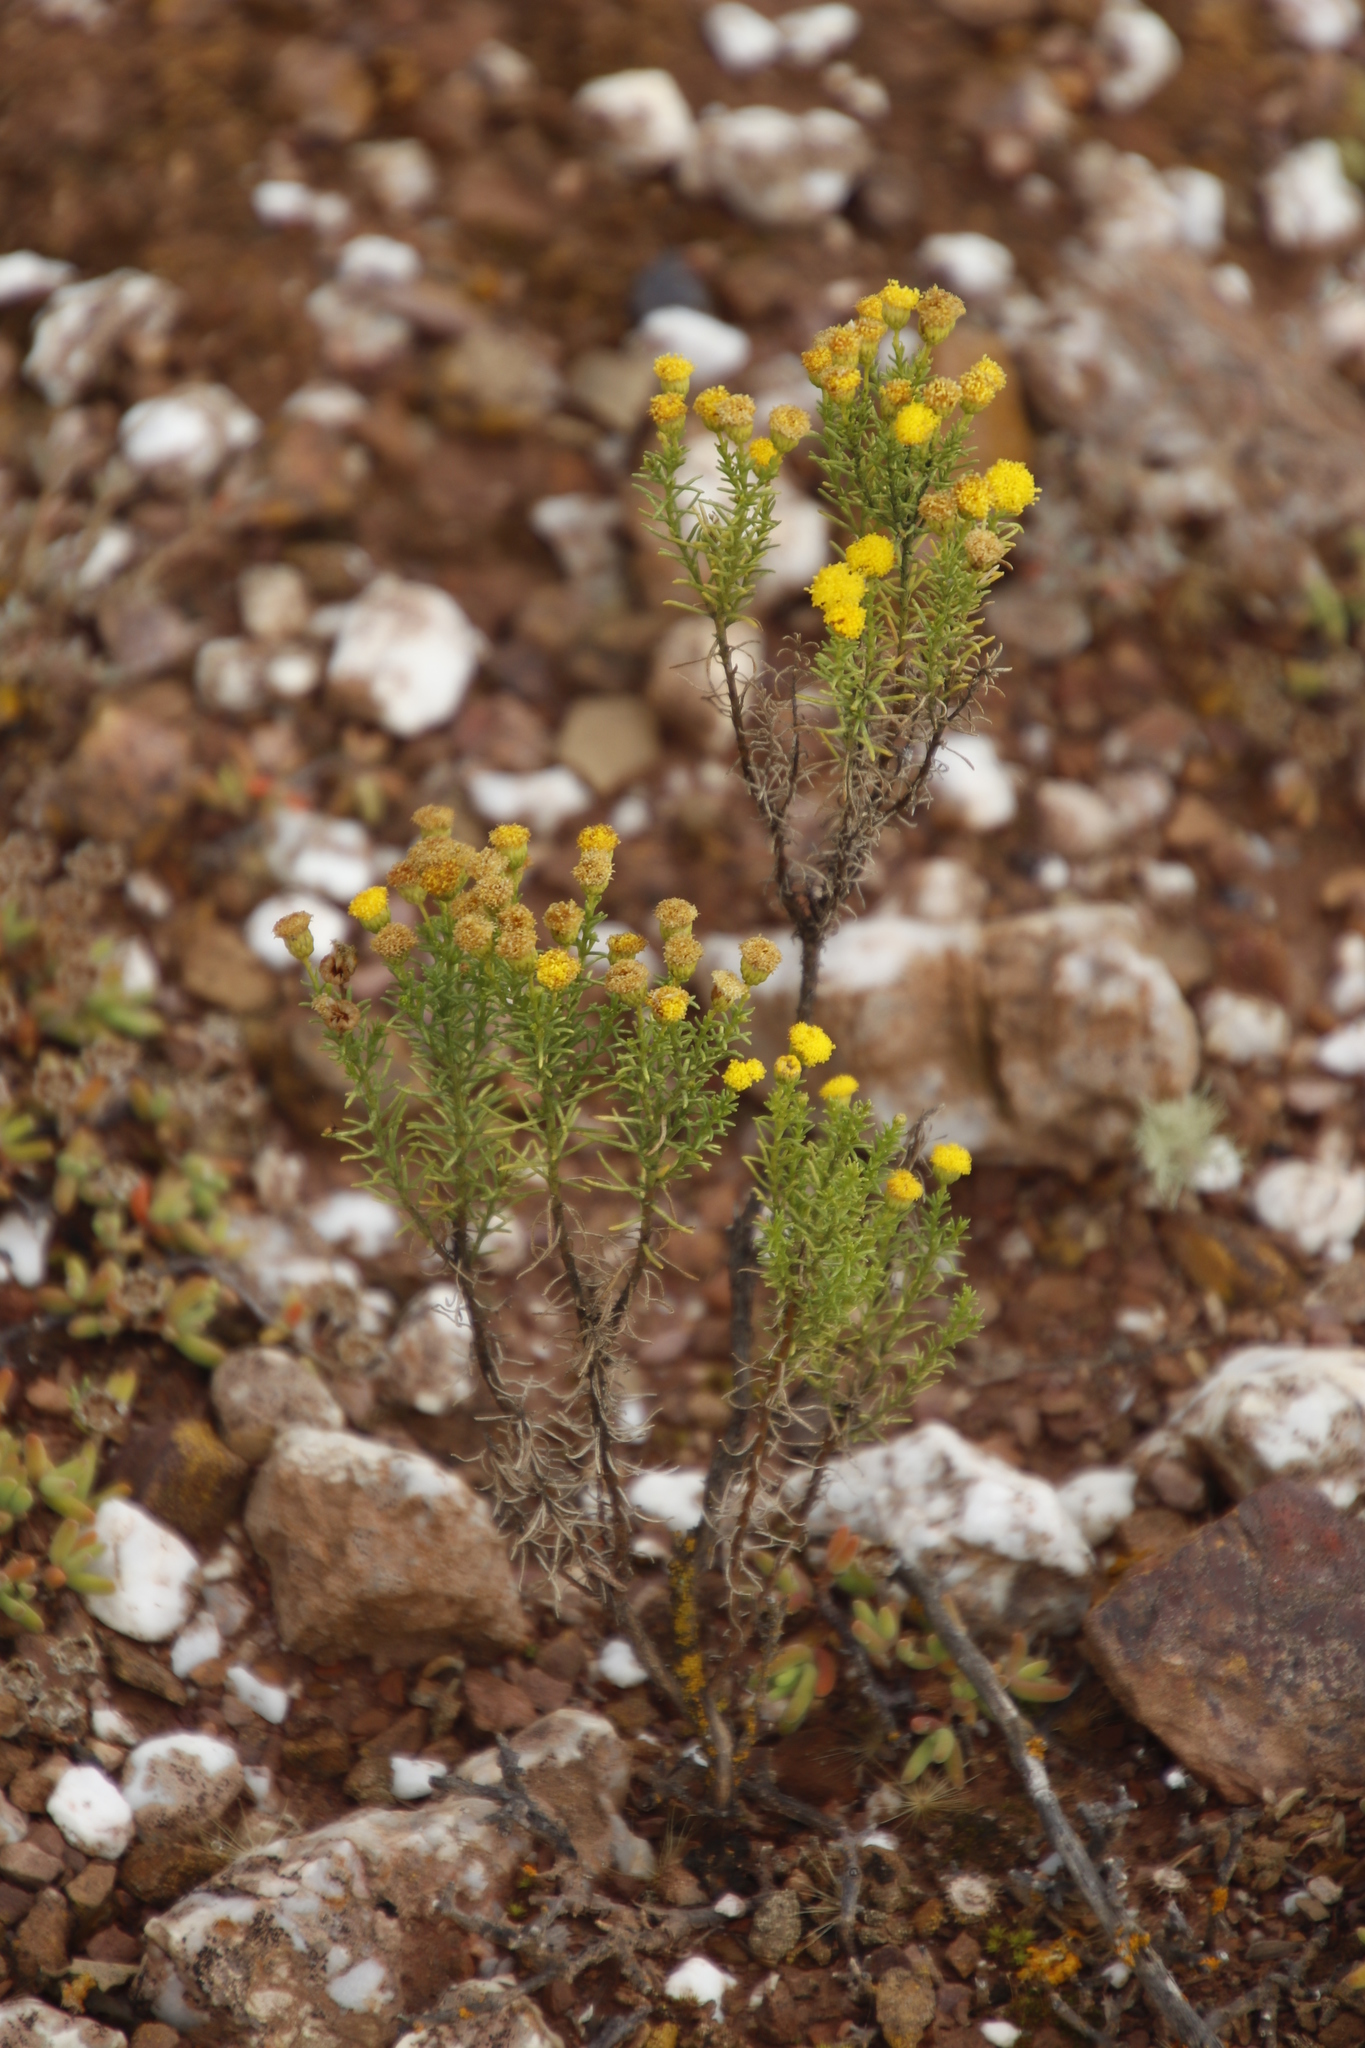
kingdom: Plantae
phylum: Tracheophyta
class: Magnoliopsida
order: Asterales
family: Asteraceae
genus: Chrysocoma
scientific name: Chrysocoma ciliata
